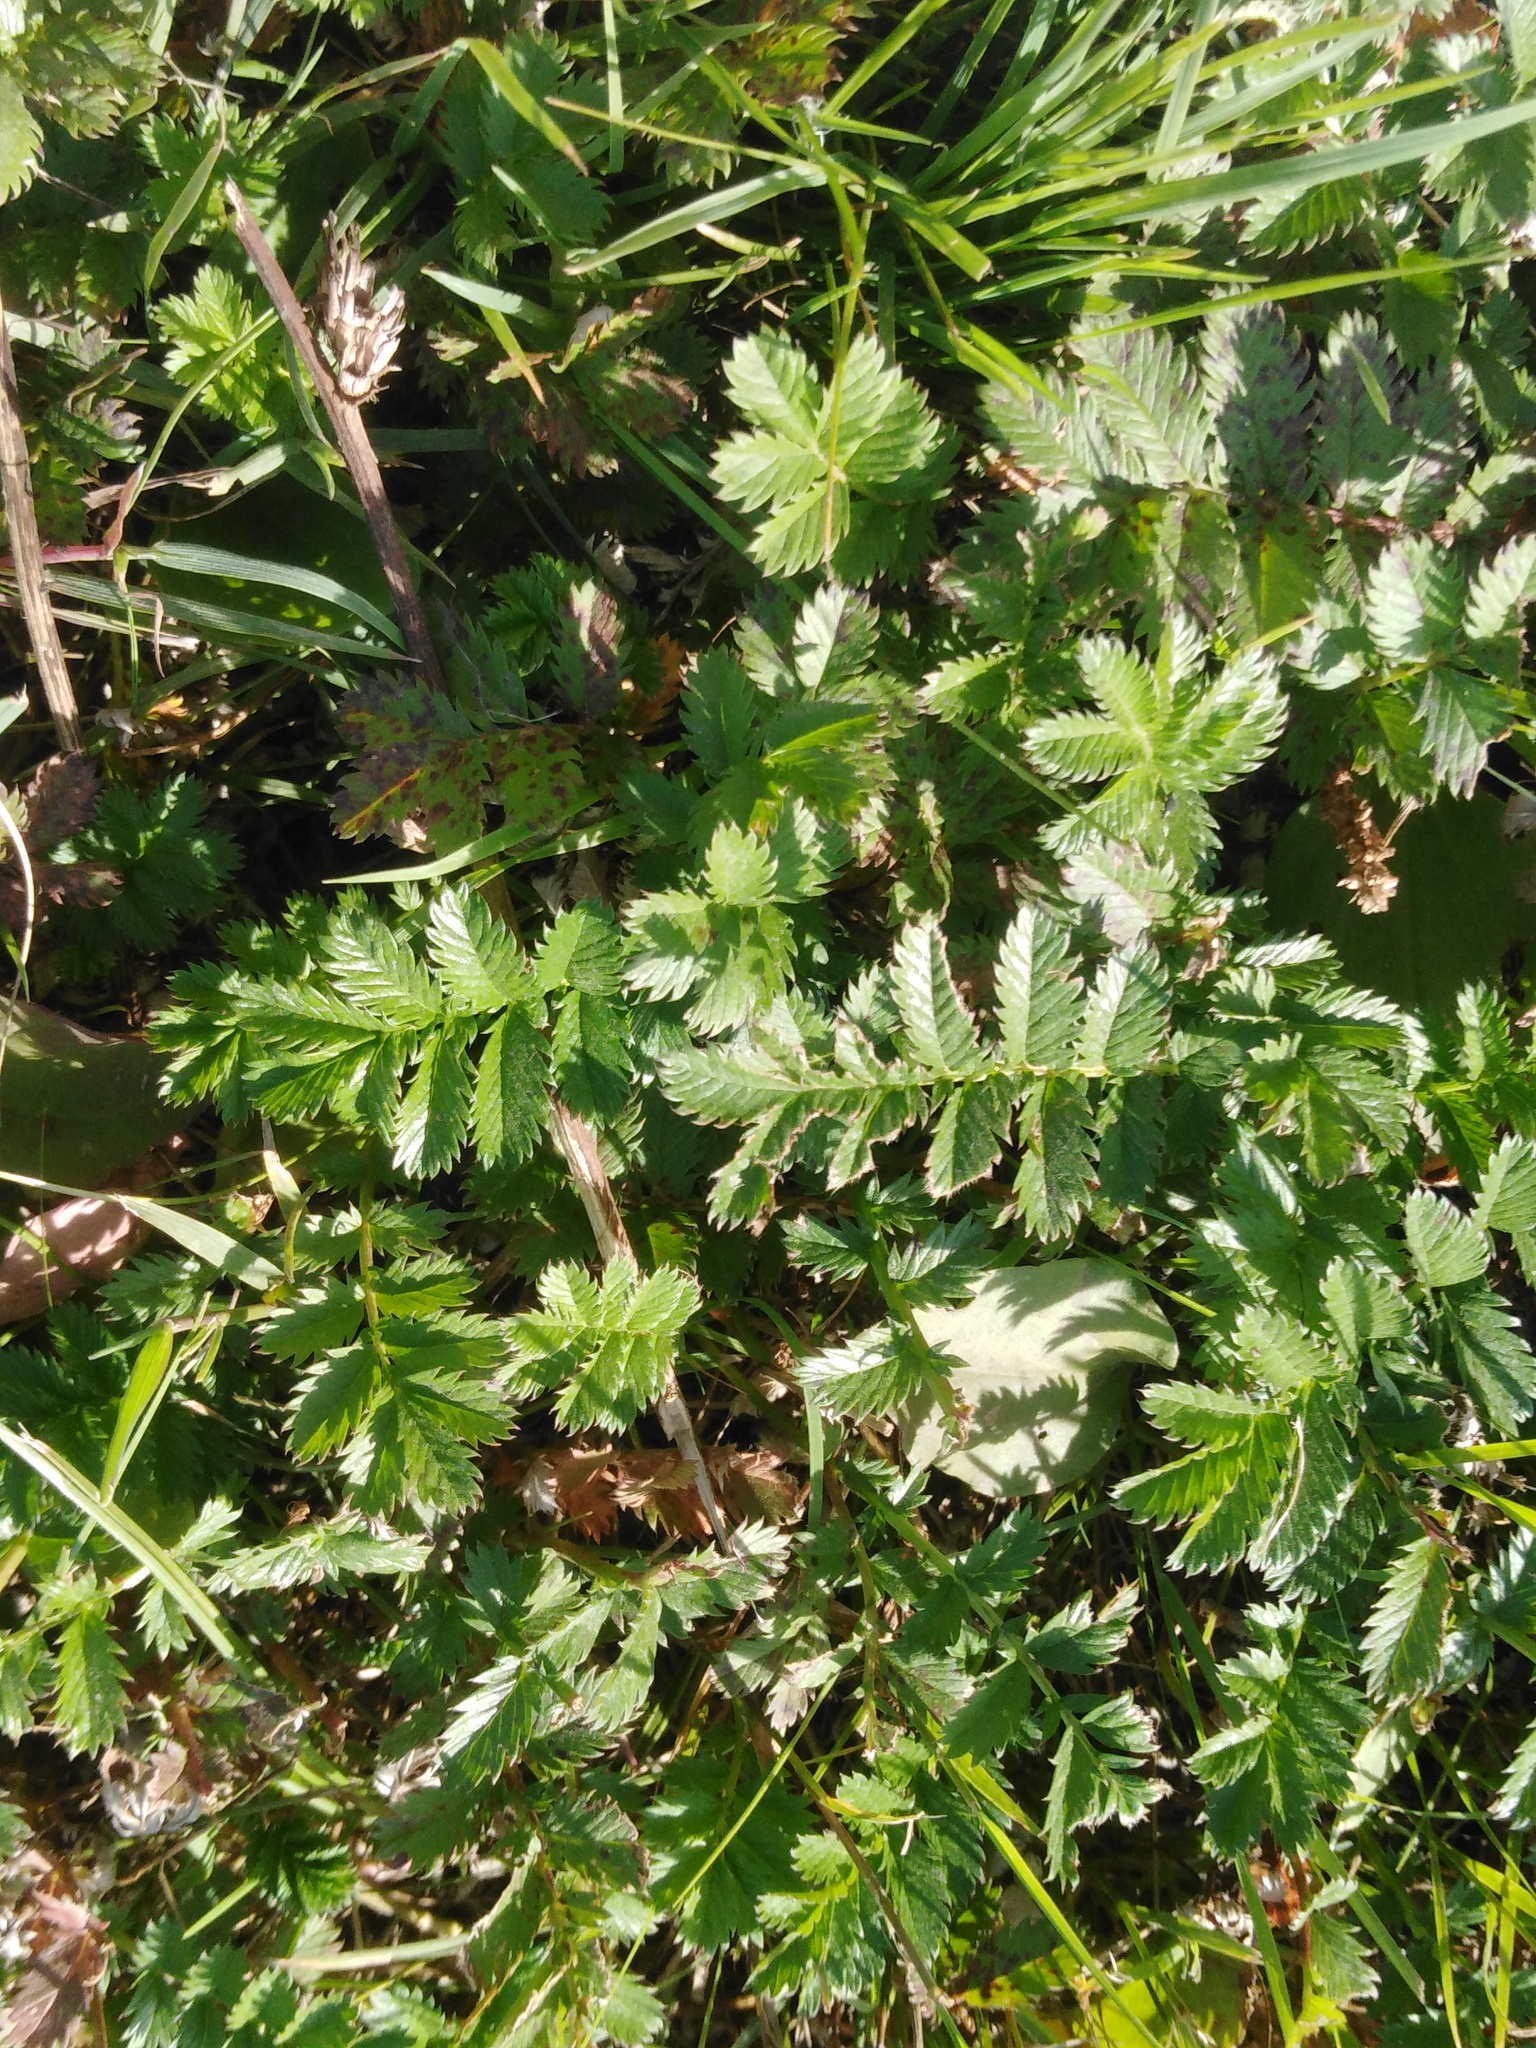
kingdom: Plantae
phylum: Tracheophyta
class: Magnoliopsida
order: Rosales
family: Rosaceae
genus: Argentina
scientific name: Argentina anserina
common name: Common silverweed
